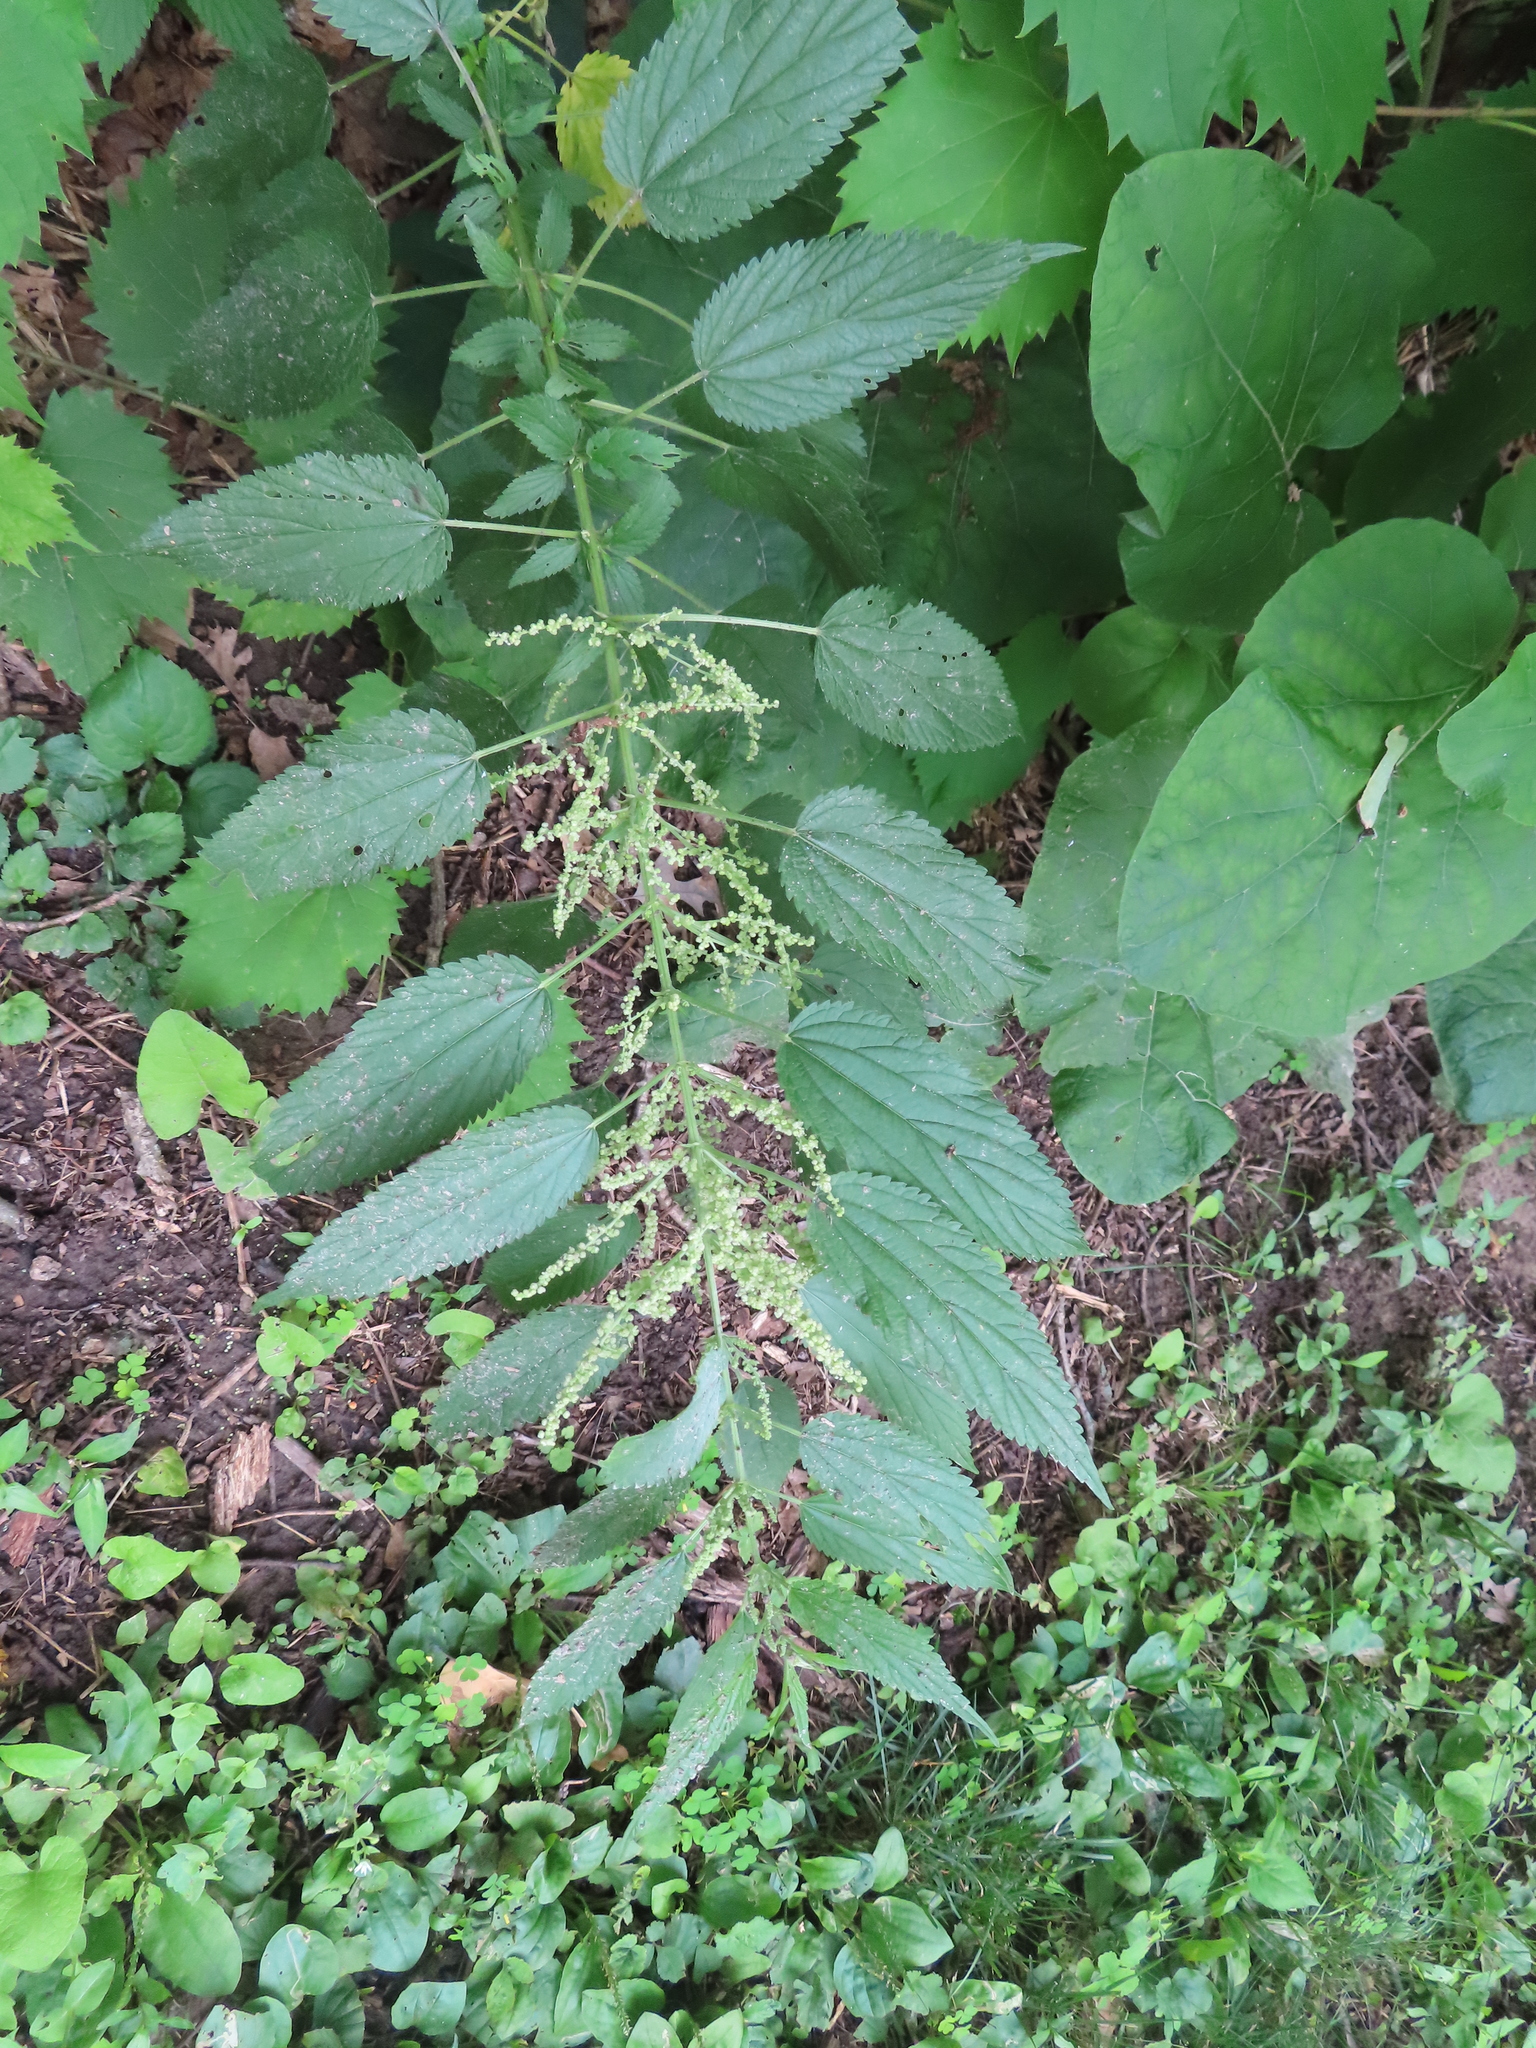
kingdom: Plantae
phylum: Tracheophyta
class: Magnoliopsida
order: Rosales
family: Urticaceae
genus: Urtica
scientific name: Urtica gracilis
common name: Slender stinging nettle
